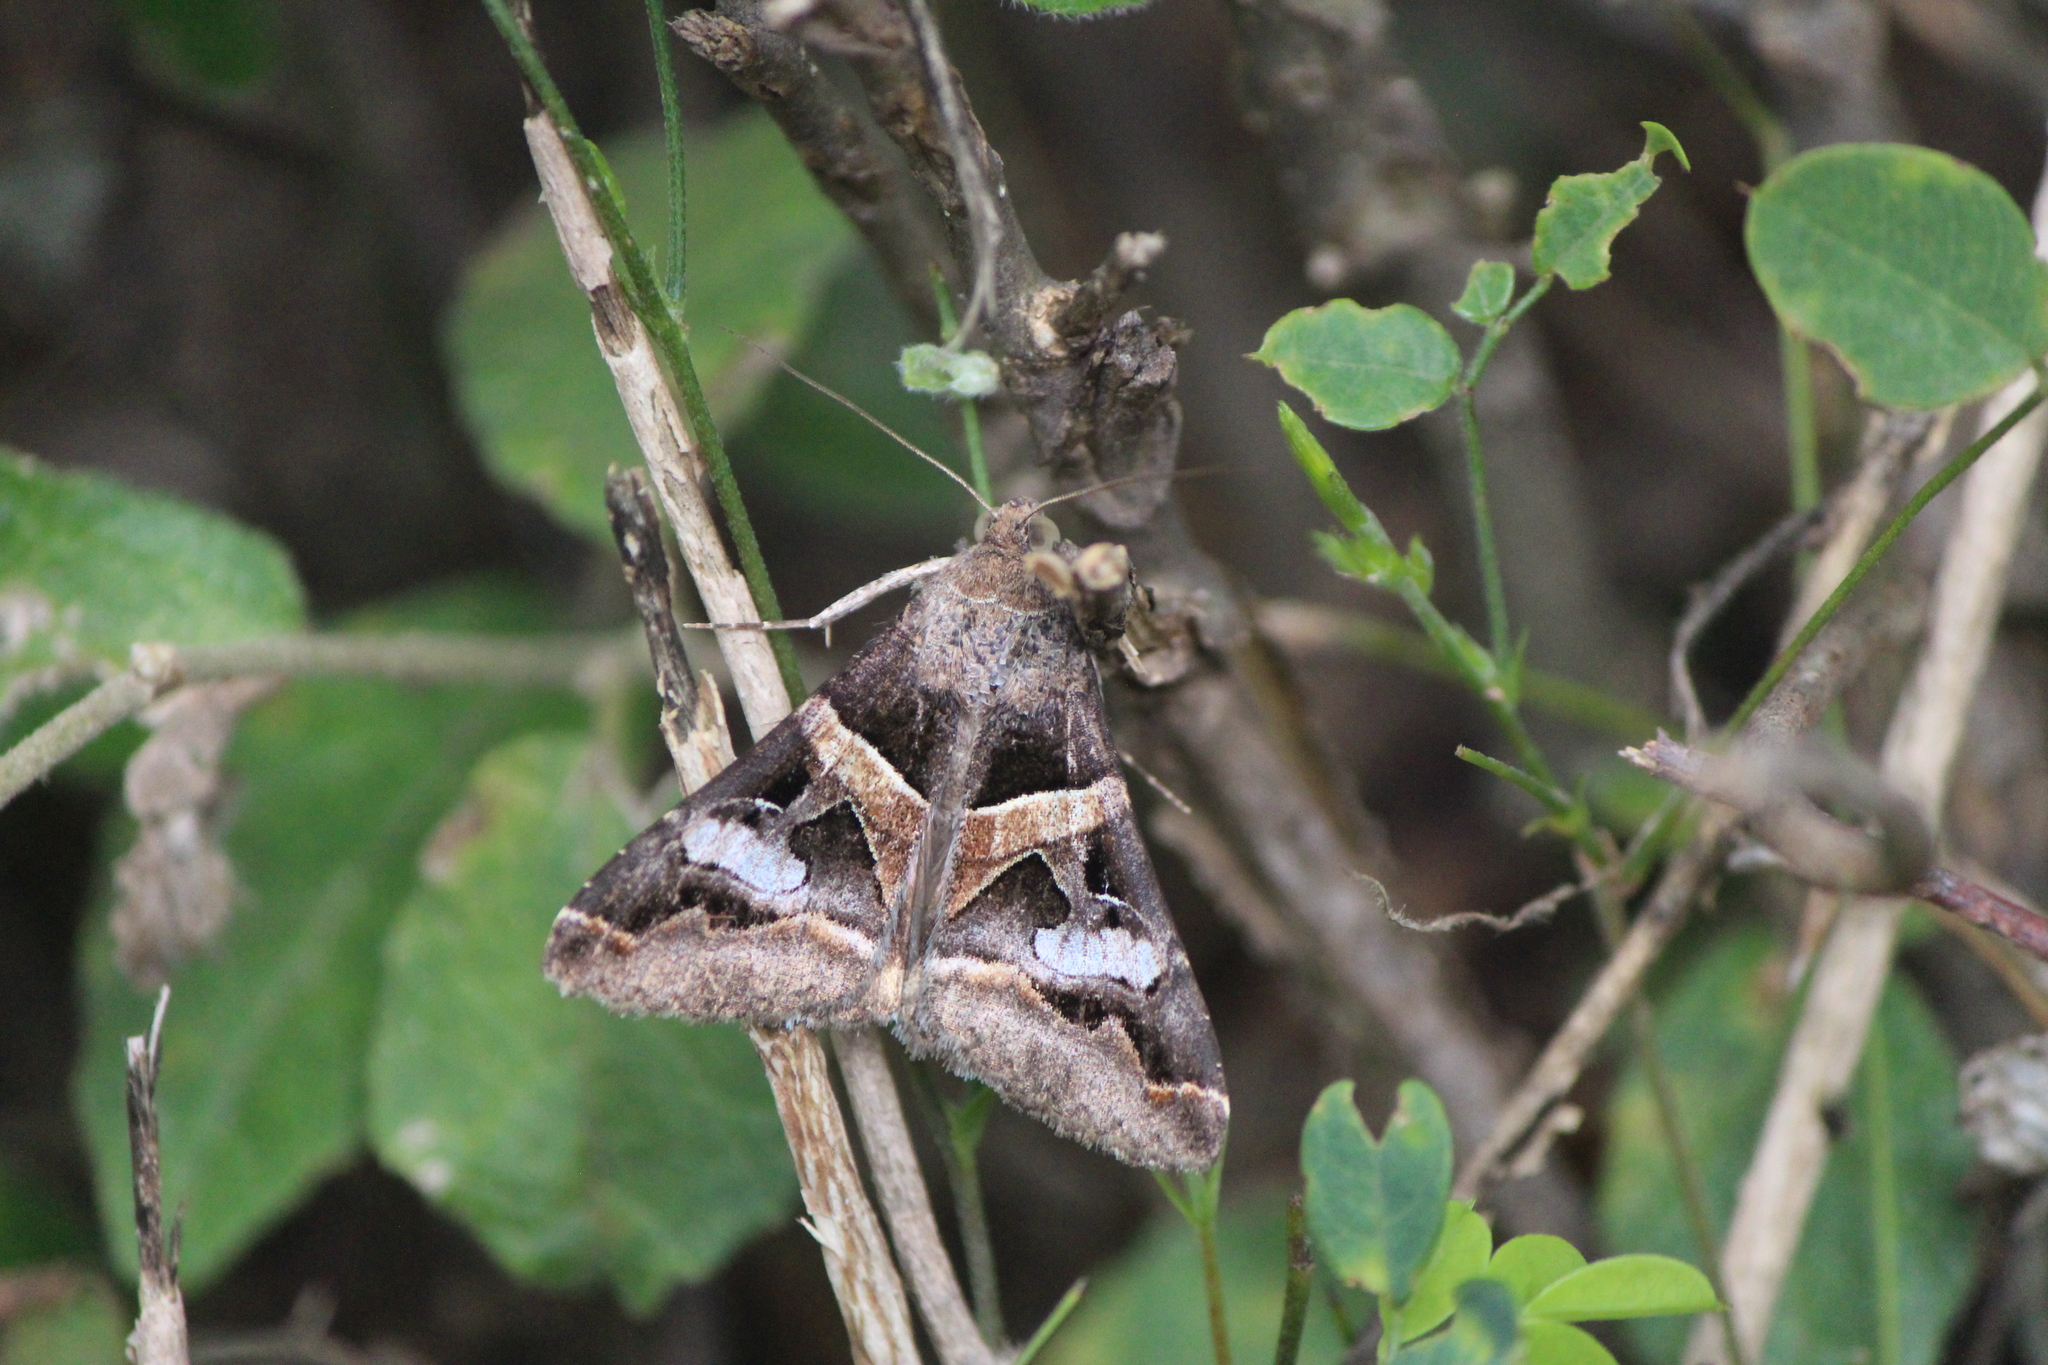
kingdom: Animalia
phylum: Arthropoda
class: Insecta
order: Lepidoptera
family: Erebidae
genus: Melipotis
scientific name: Melipotis perpendicularis
